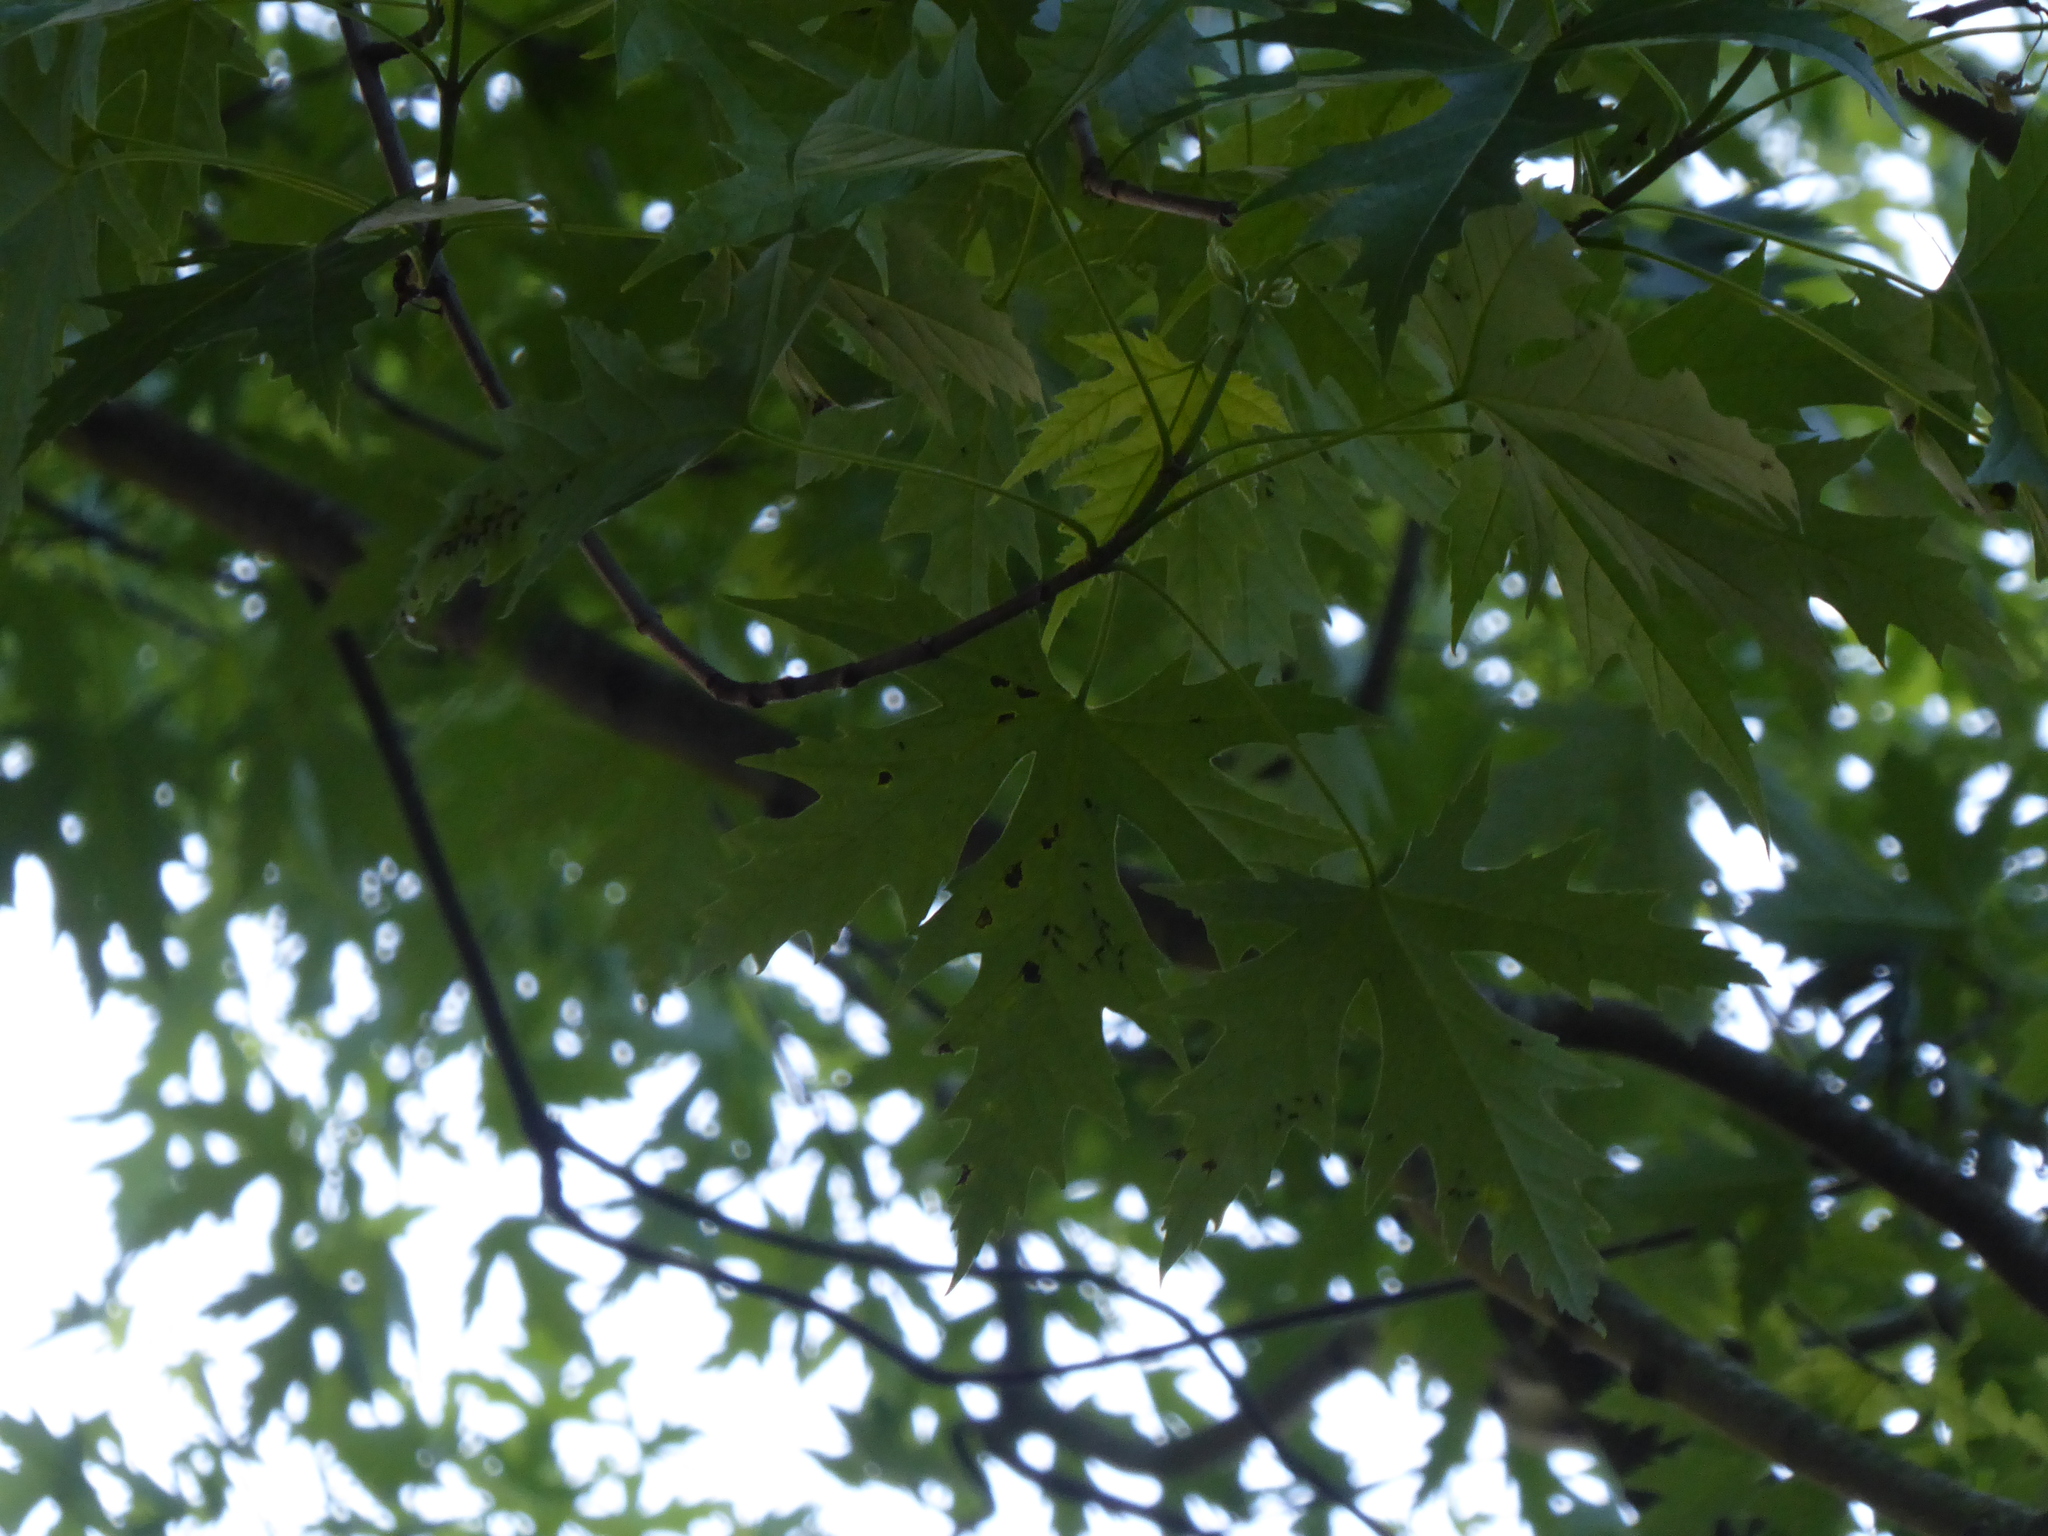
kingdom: Plantae
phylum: Tracheophyta
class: Magnoliopsida
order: Sapindales
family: Sapindaceae
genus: Acer
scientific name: Acer saccharinum
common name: Silver maple
